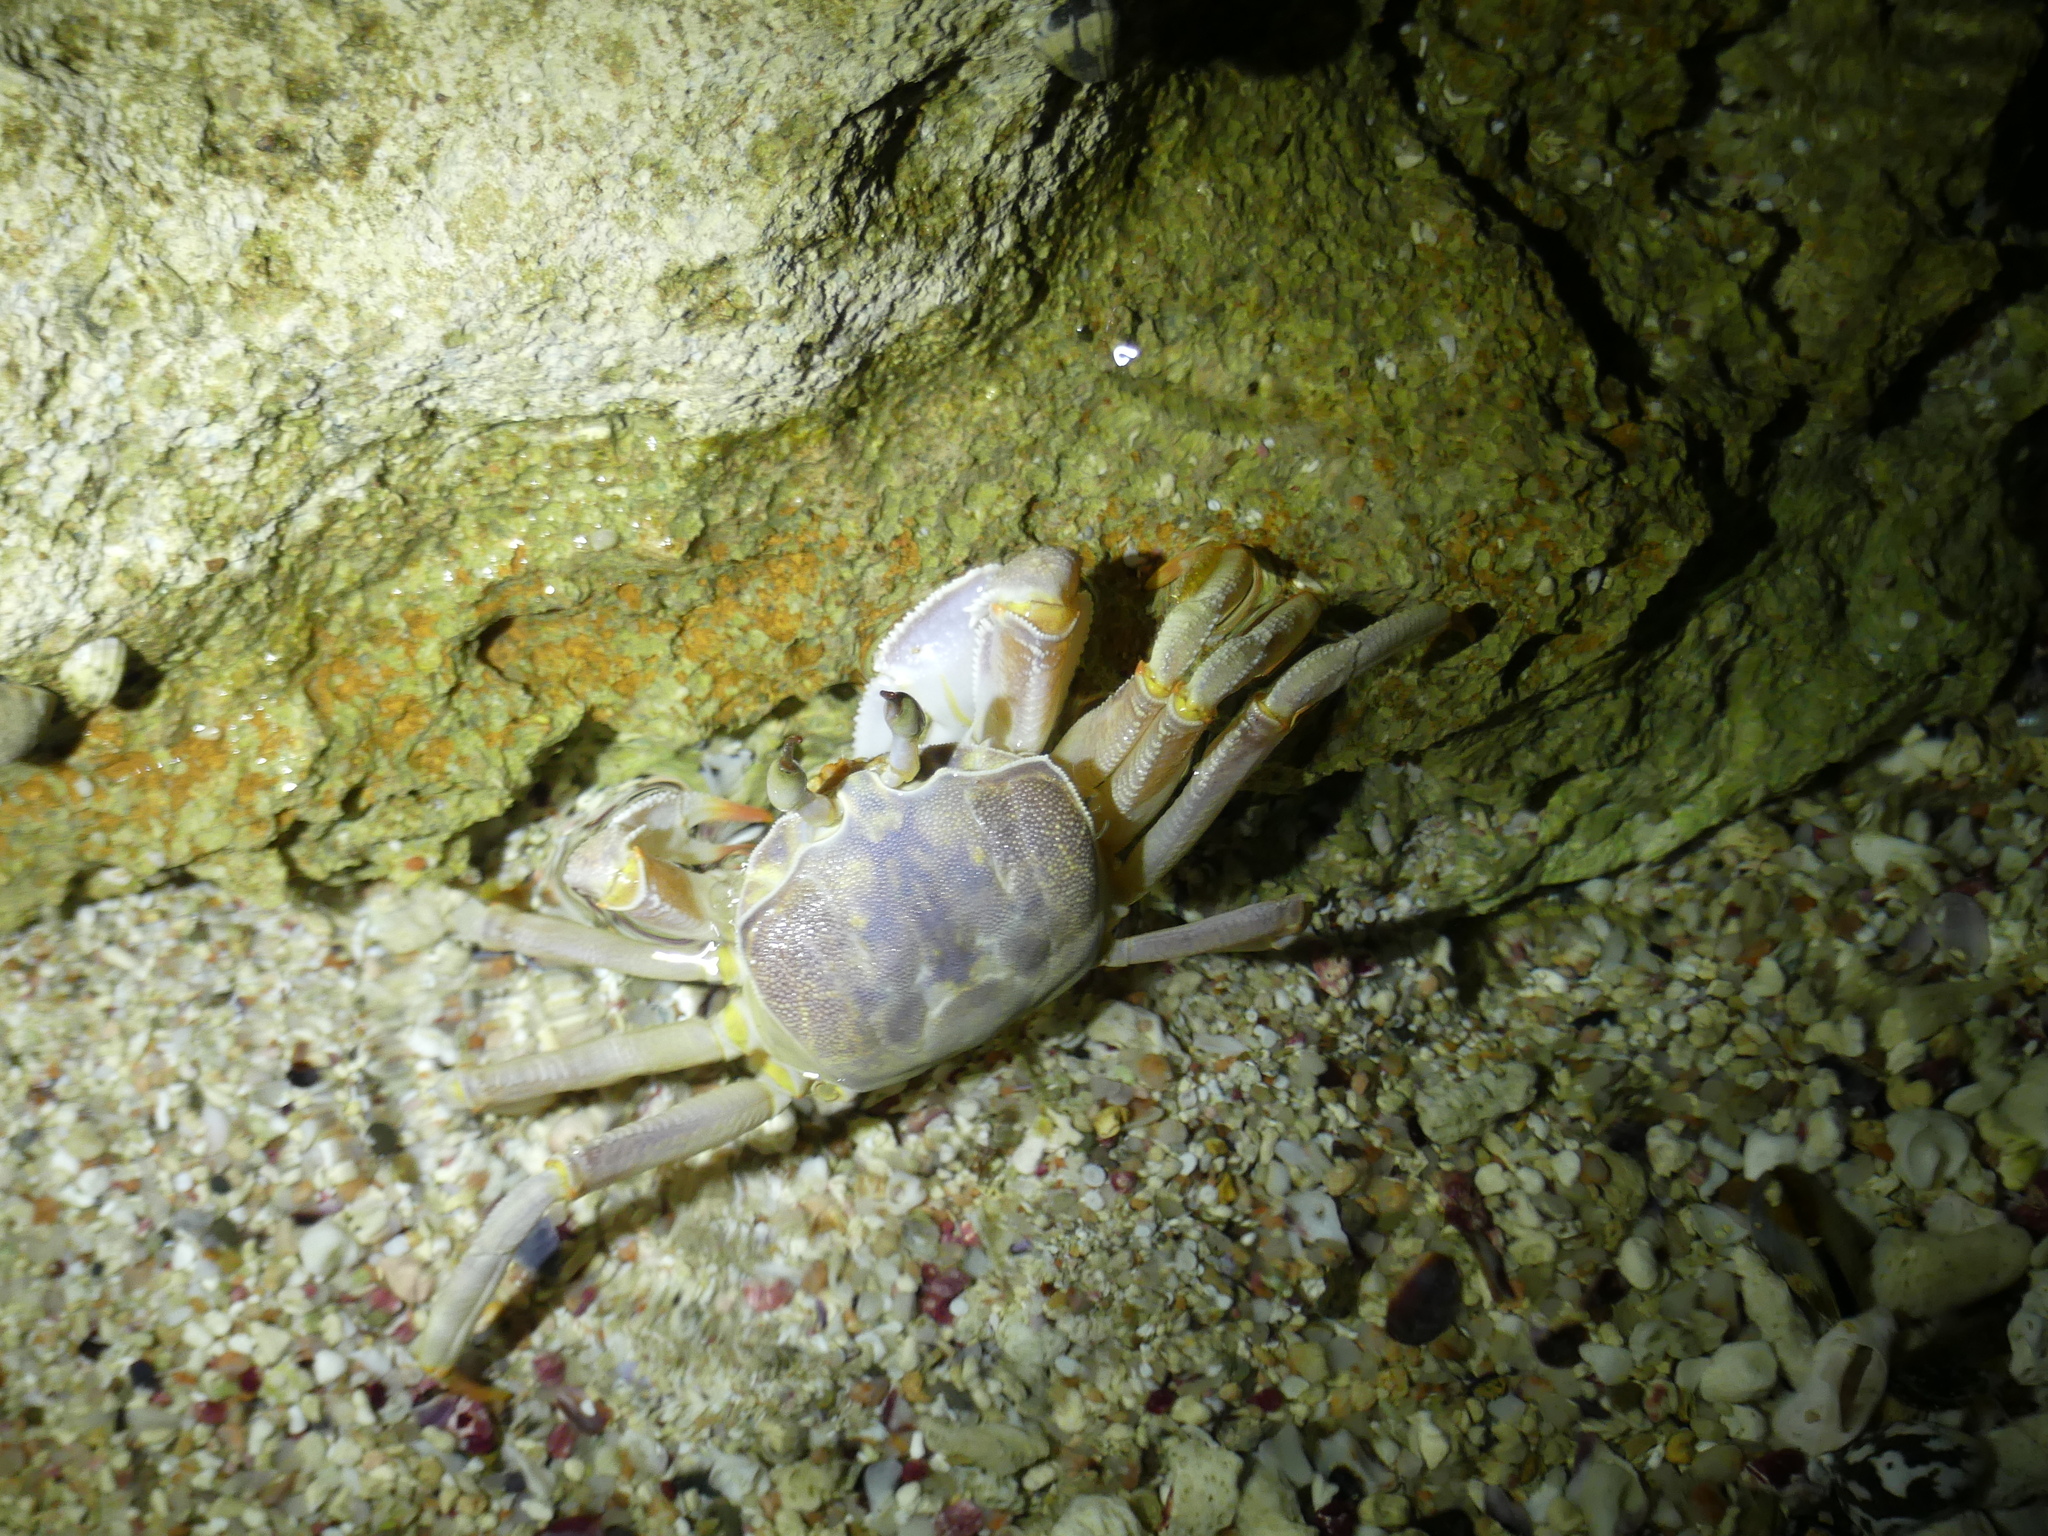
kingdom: Animalia
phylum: Arthropoda
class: Malacostraca
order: Decapoda
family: Ocypodidae
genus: Ocypode
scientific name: Ocypode saratan
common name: Red sea ghost crab
